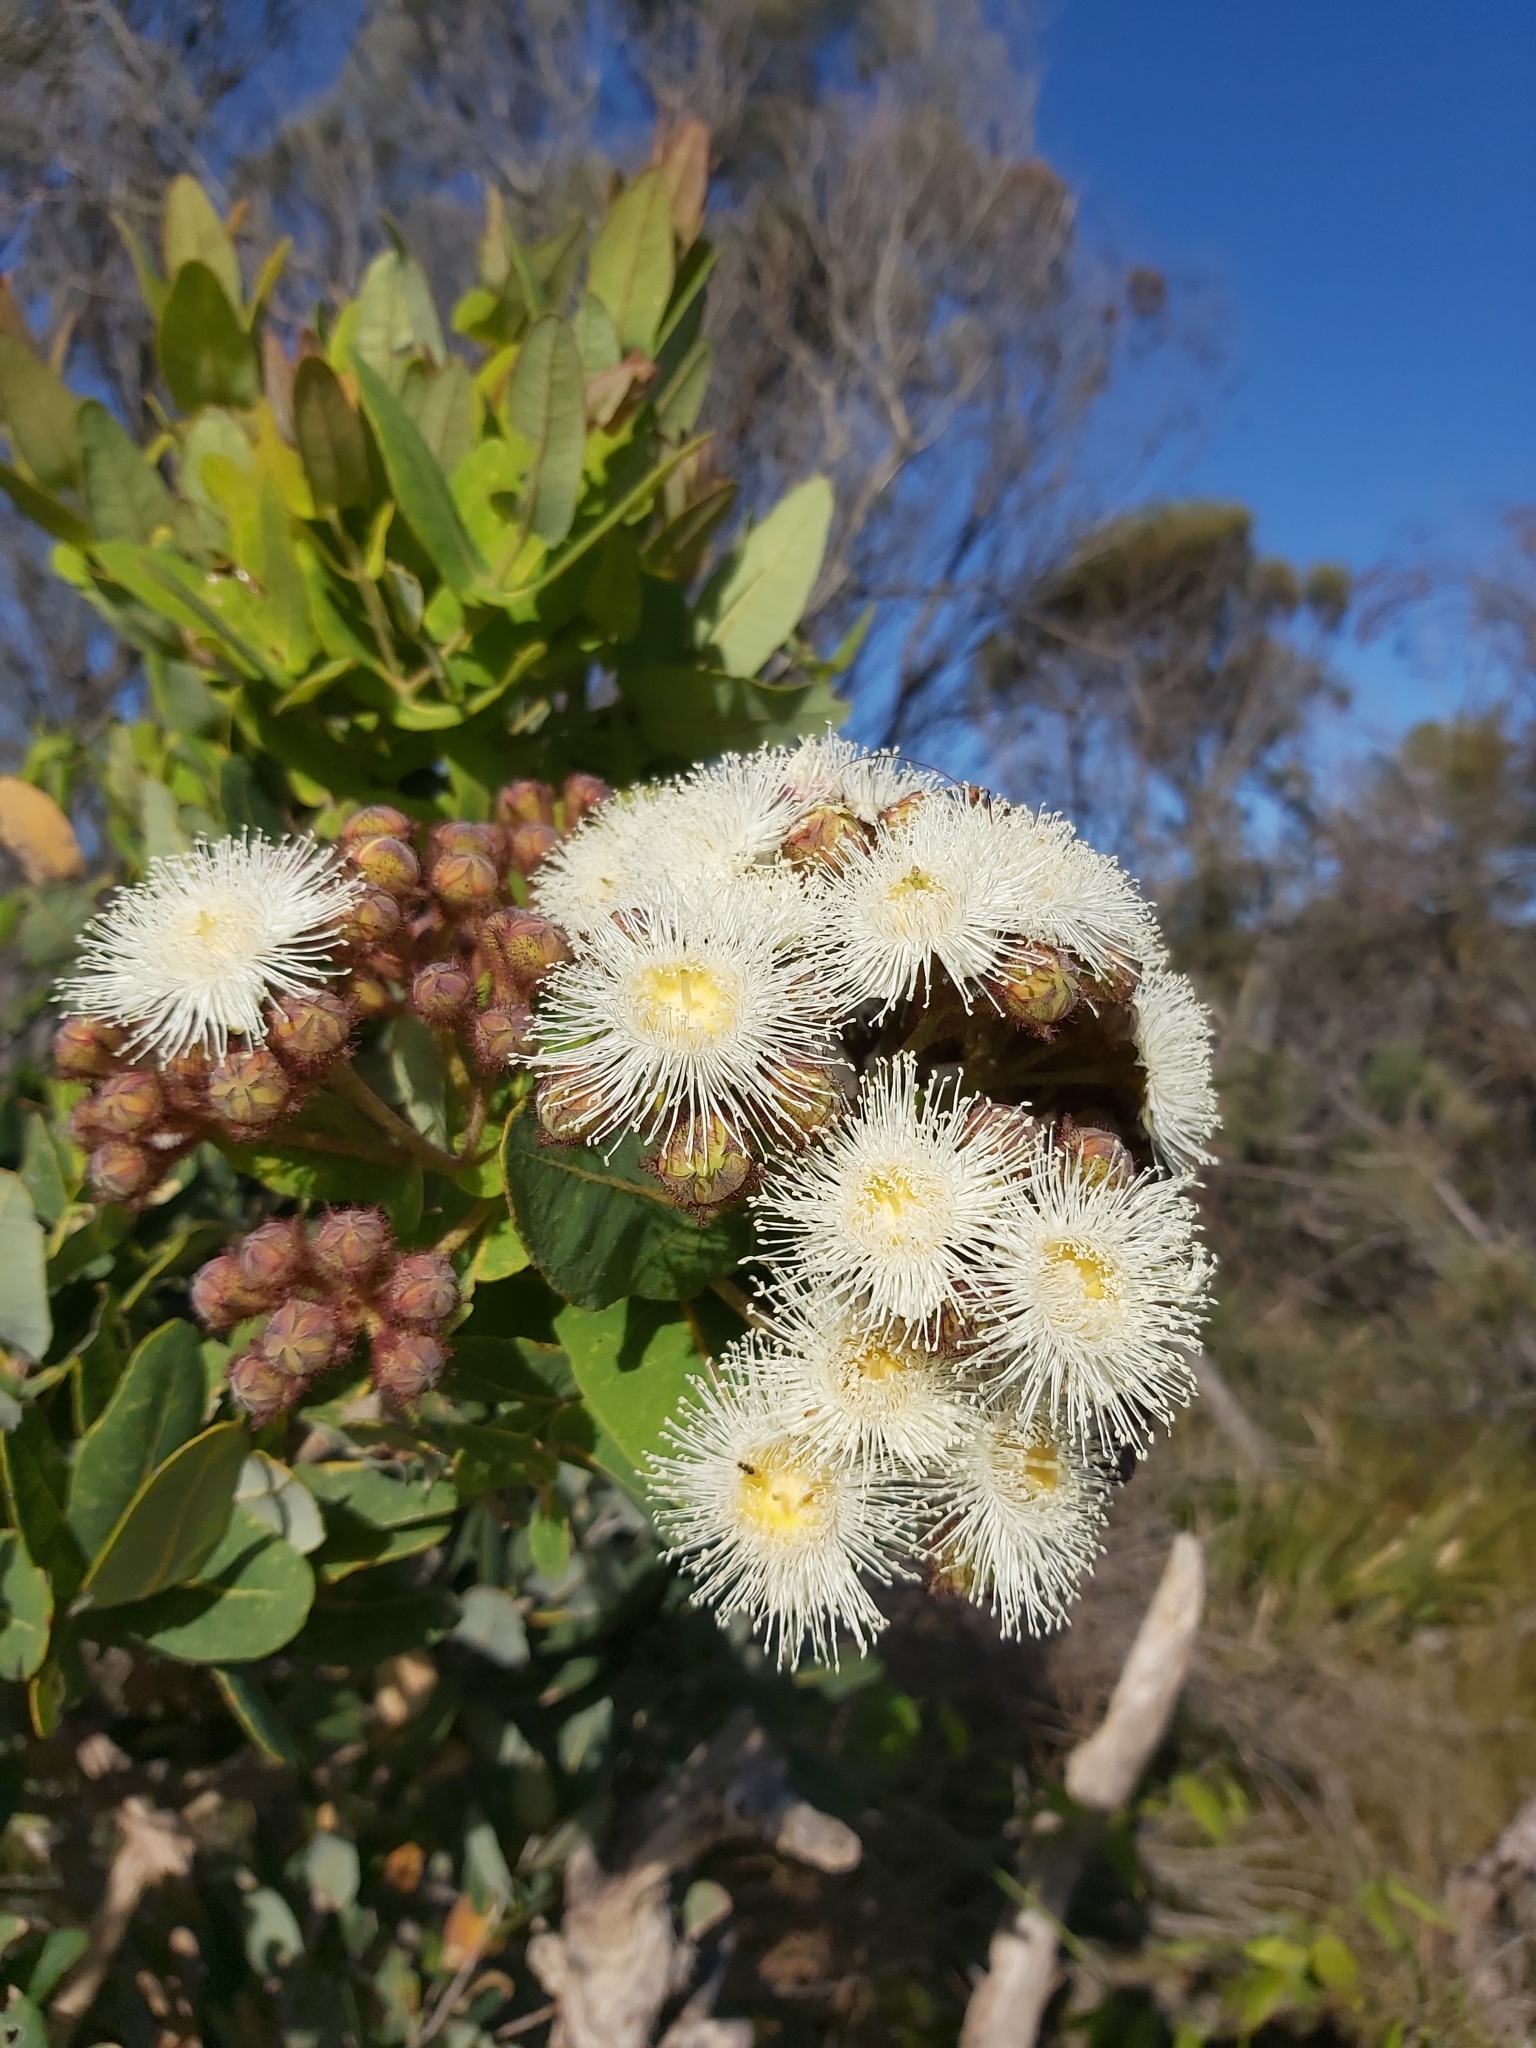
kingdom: Plantae
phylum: Tracheophyta
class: Magnoliopsida
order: Myrtales
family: Myrtaceae
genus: Angophora
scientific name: Angophora hispida
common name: Dwarf-apple
